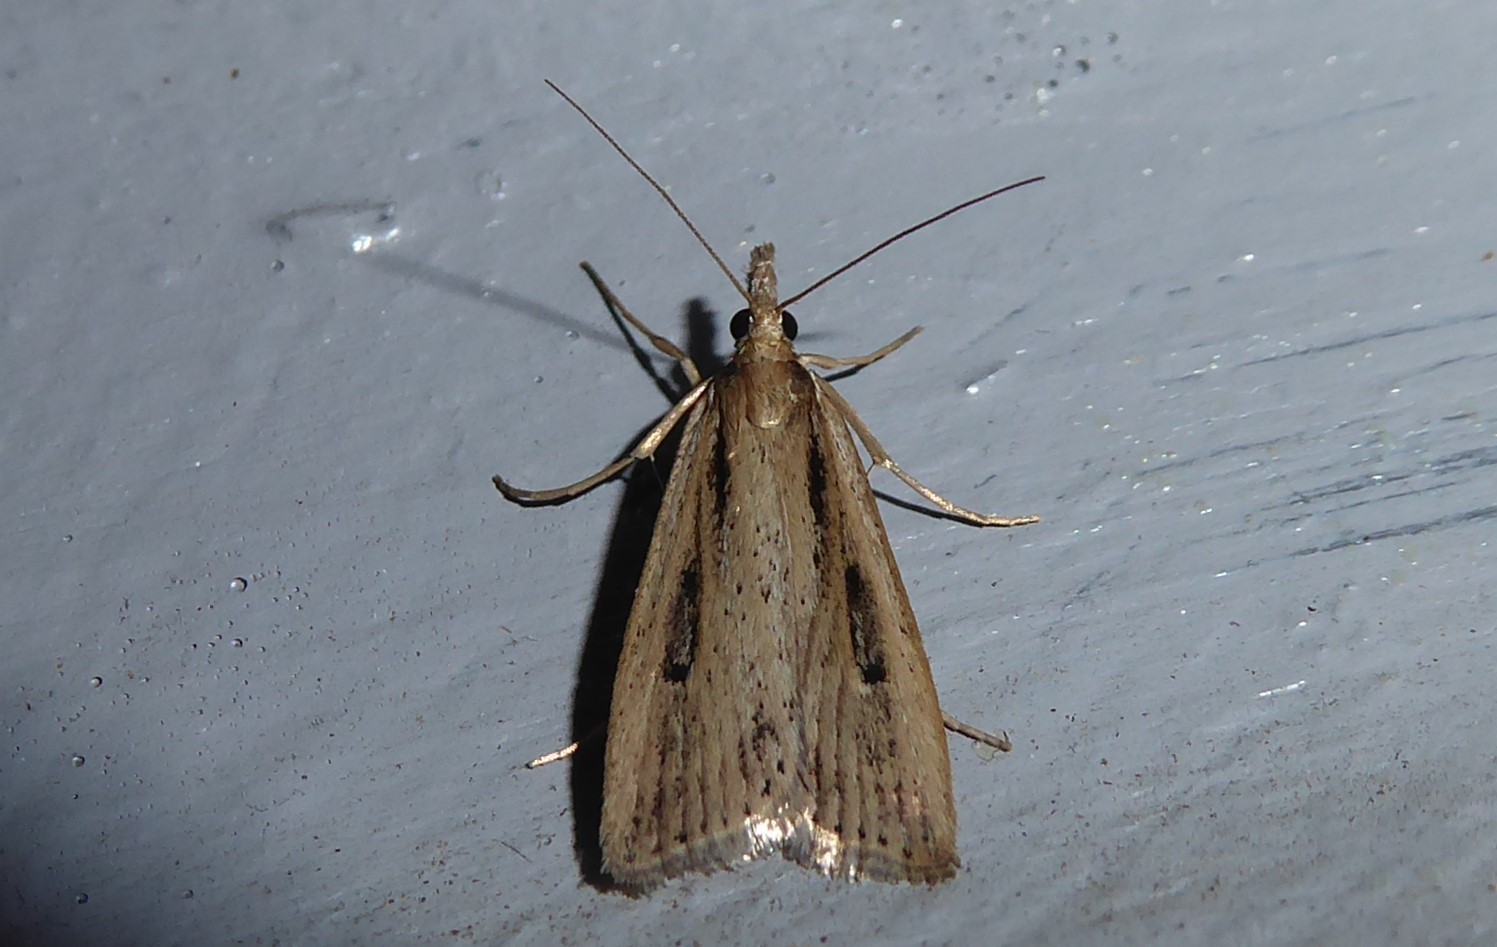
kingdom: Animalia
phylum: Arthropoda
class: Insecta
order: Lepidoptera
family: Crambidae
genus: Eudonia
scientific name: Eudonia sabulosella
